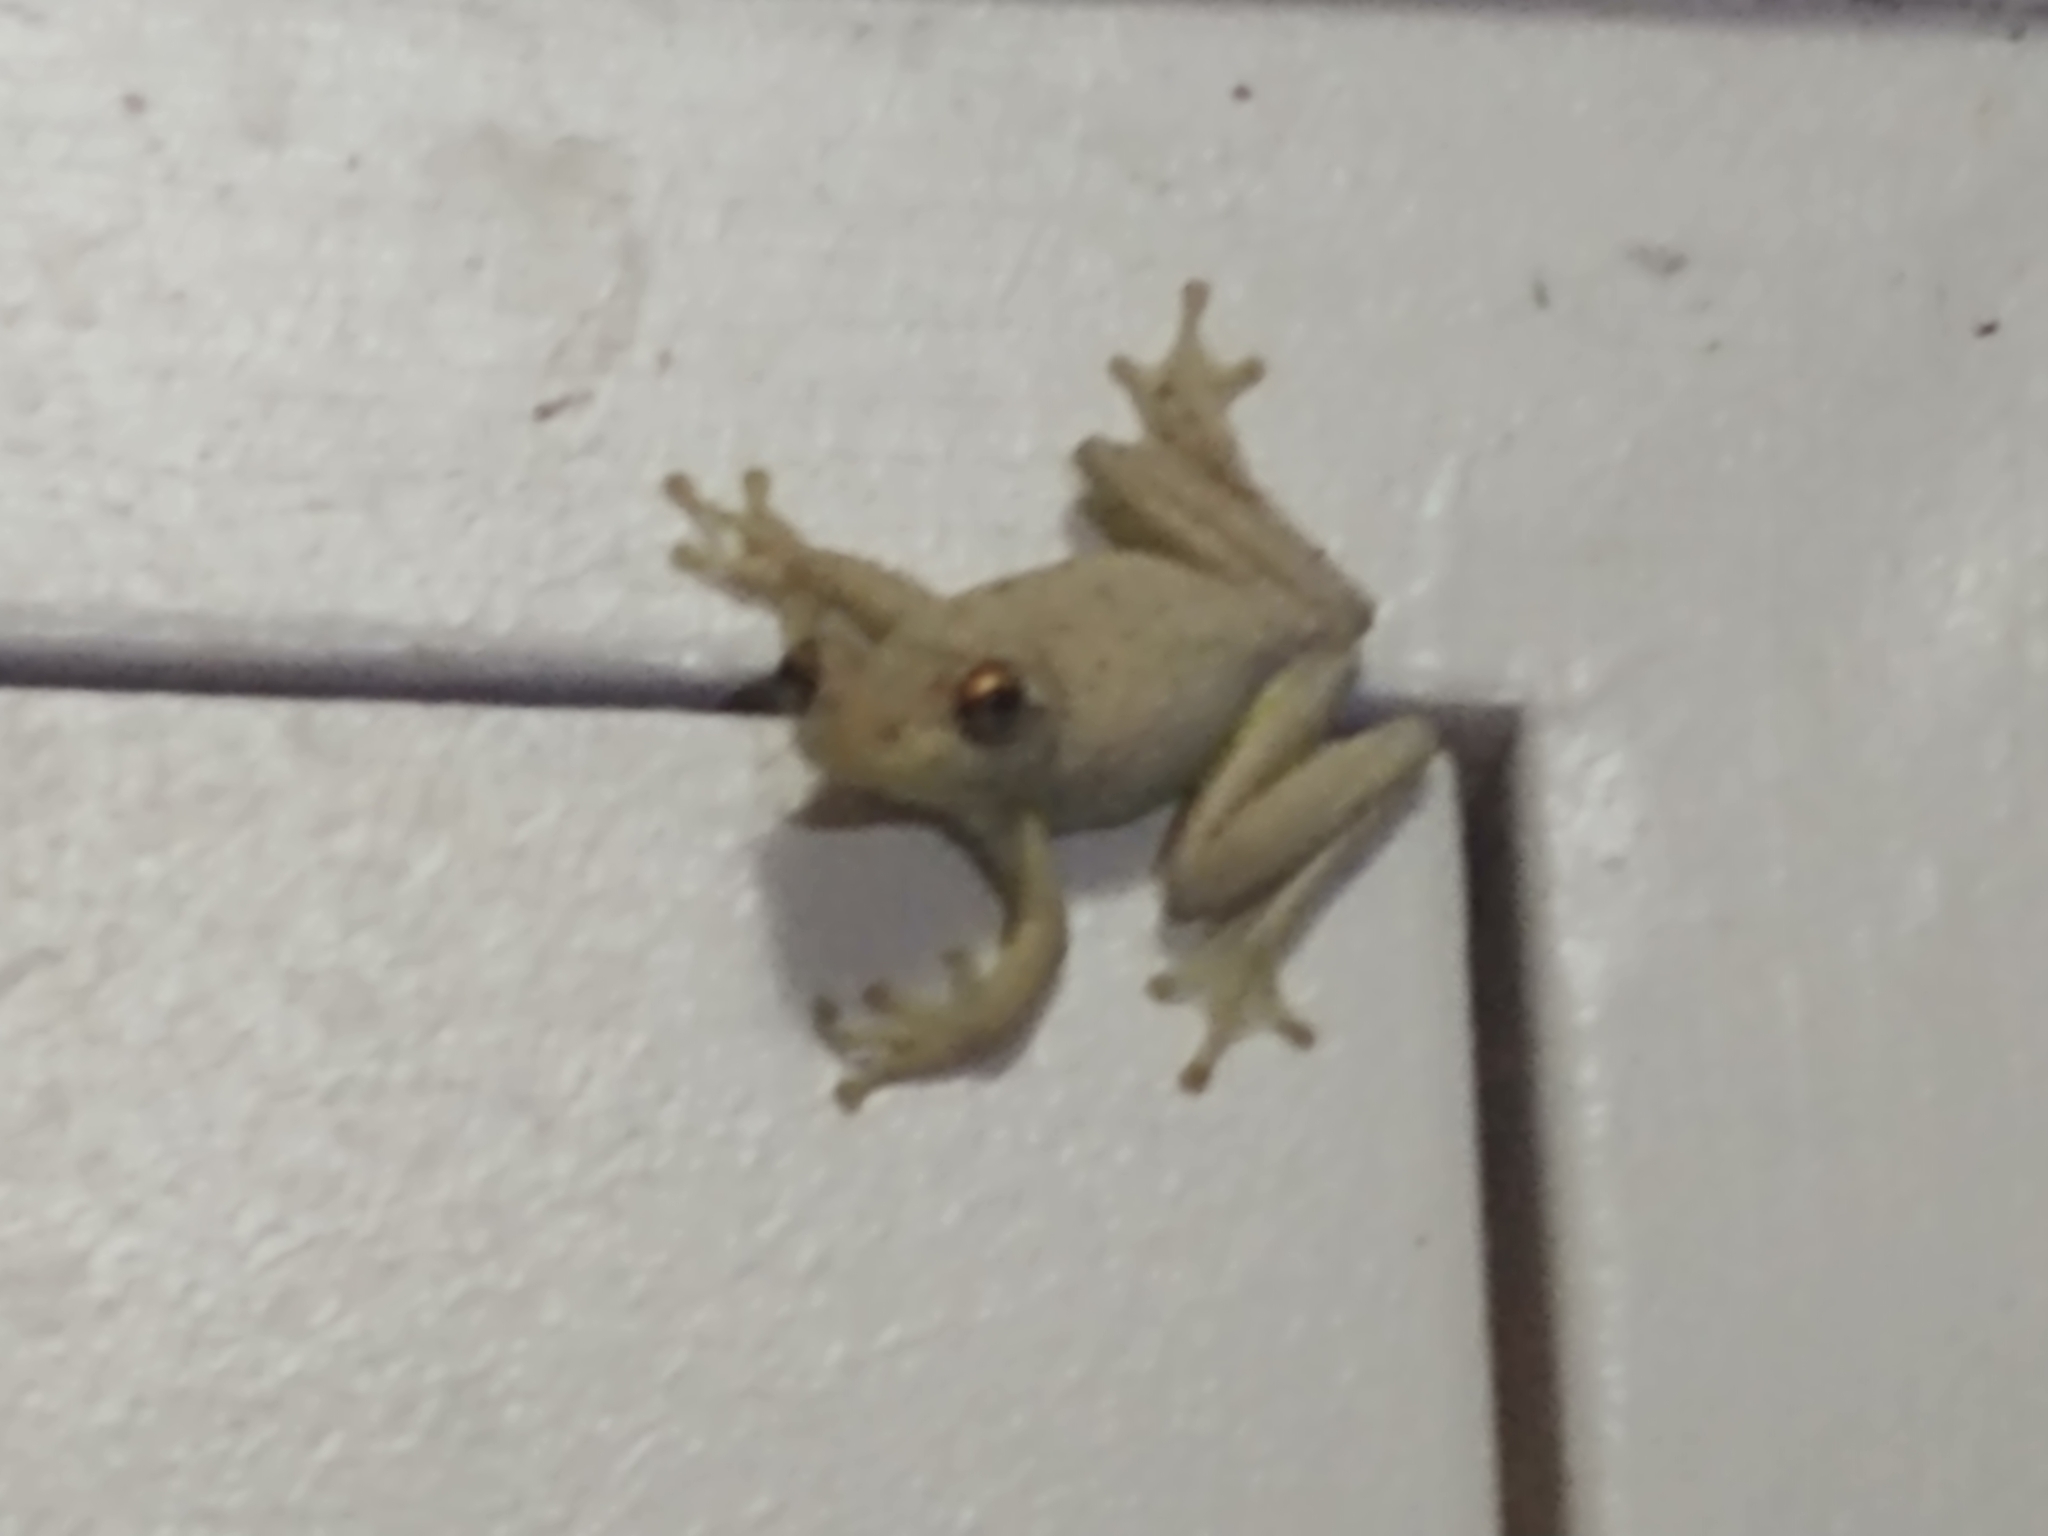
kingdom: Animalia
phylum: Chordata
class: Amphibia
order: Anura
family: Hylidae
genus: Osteopilus
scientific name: Osteopilus septentrionalis
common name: Cuban treefrog
